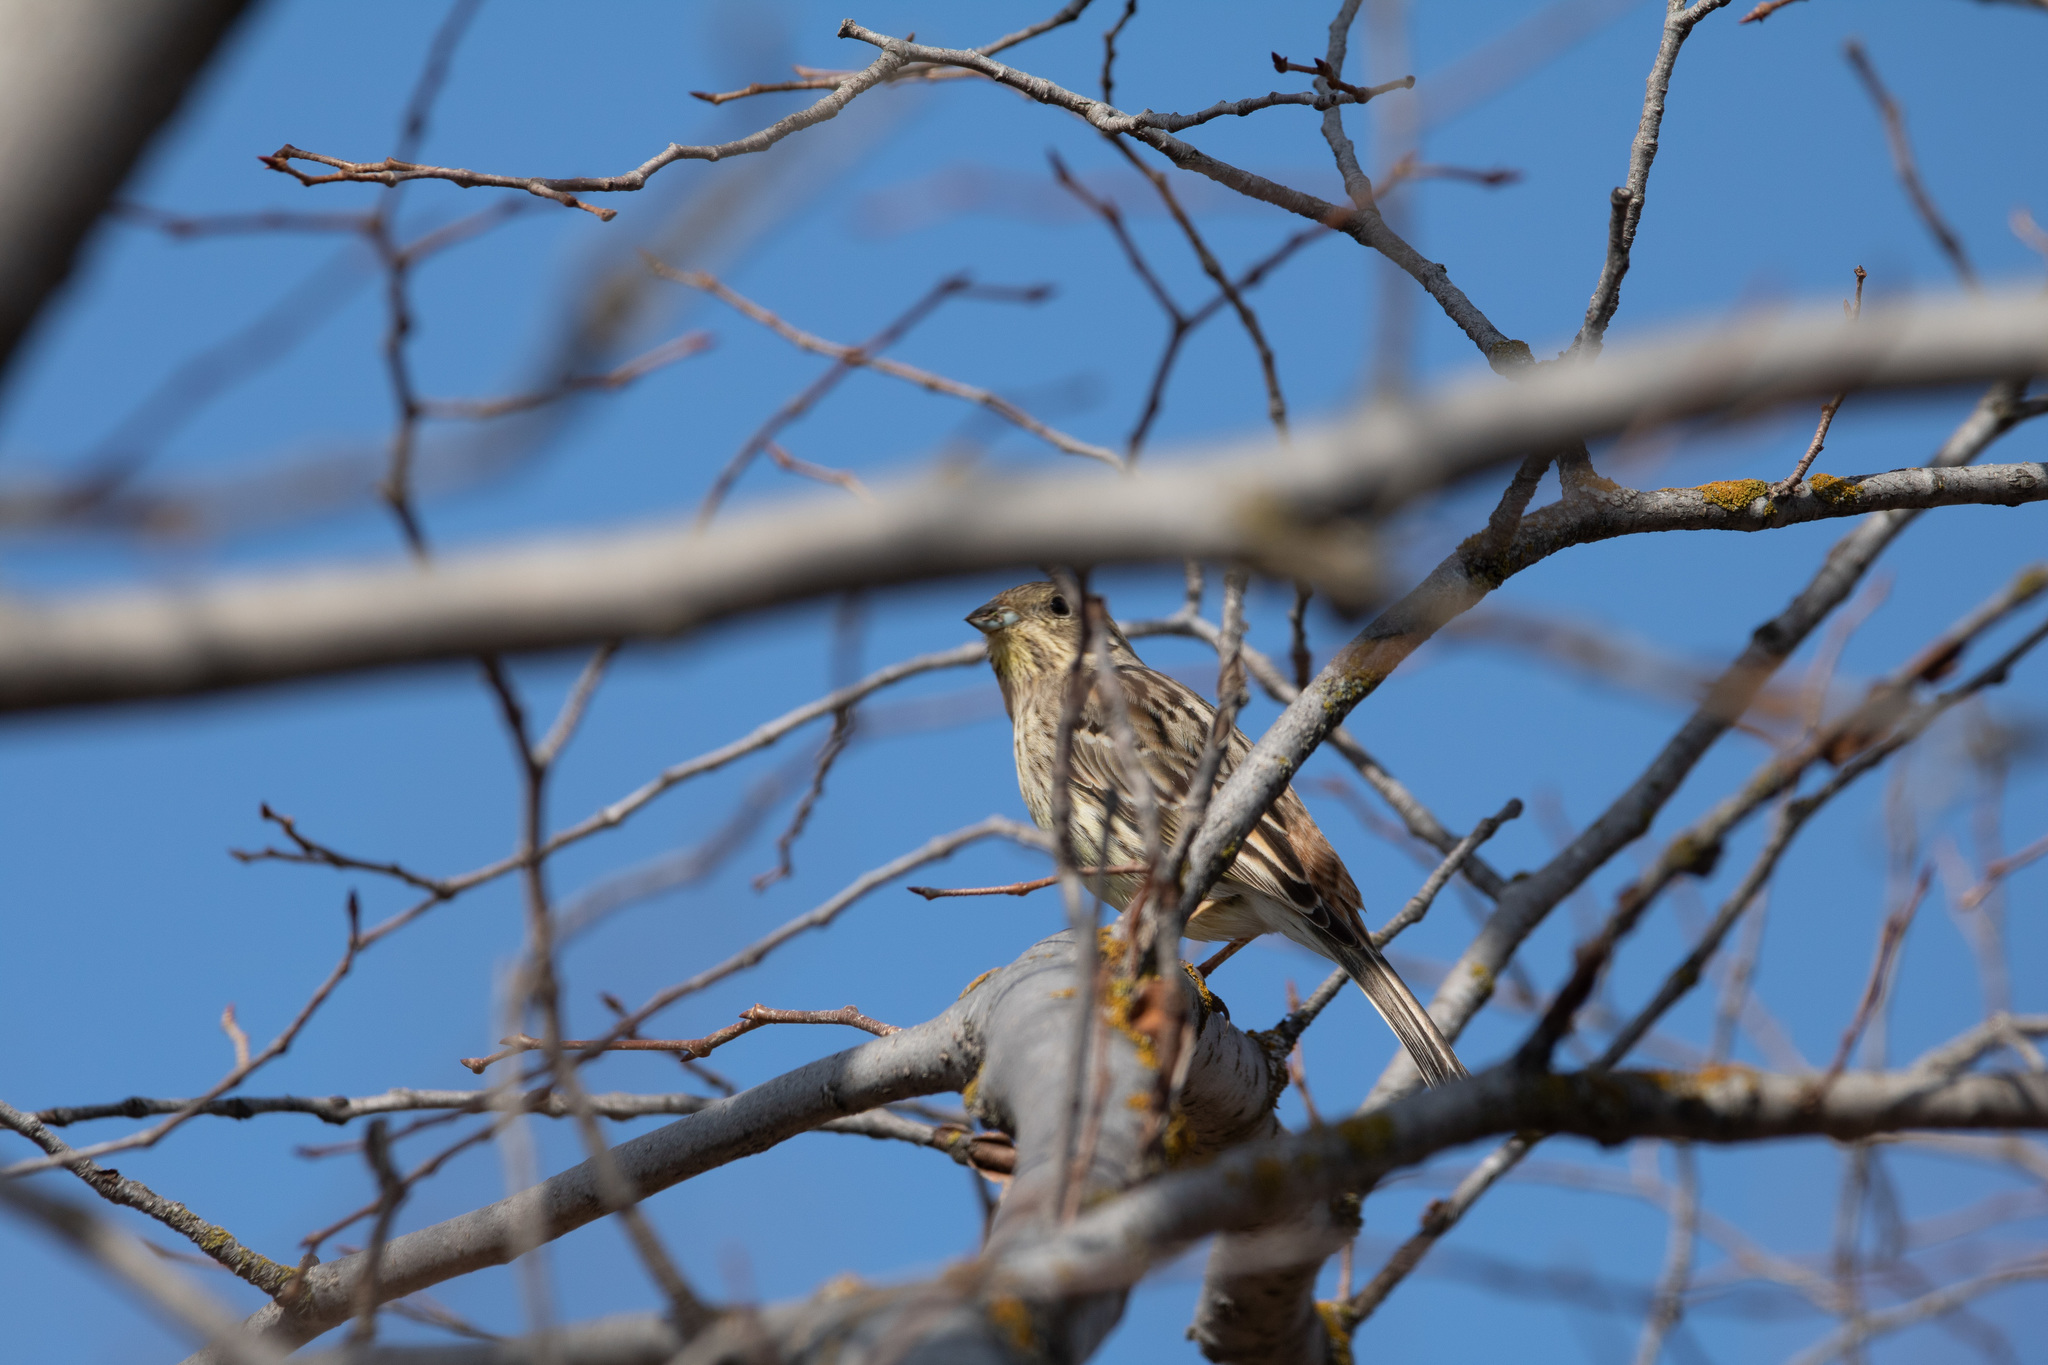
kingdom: Animalia
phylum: Chordata
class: Aves
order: Passeriformes
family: Emberizidae
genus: Emberiza
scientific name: Emberiza citrinella
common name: Yellowhammer
